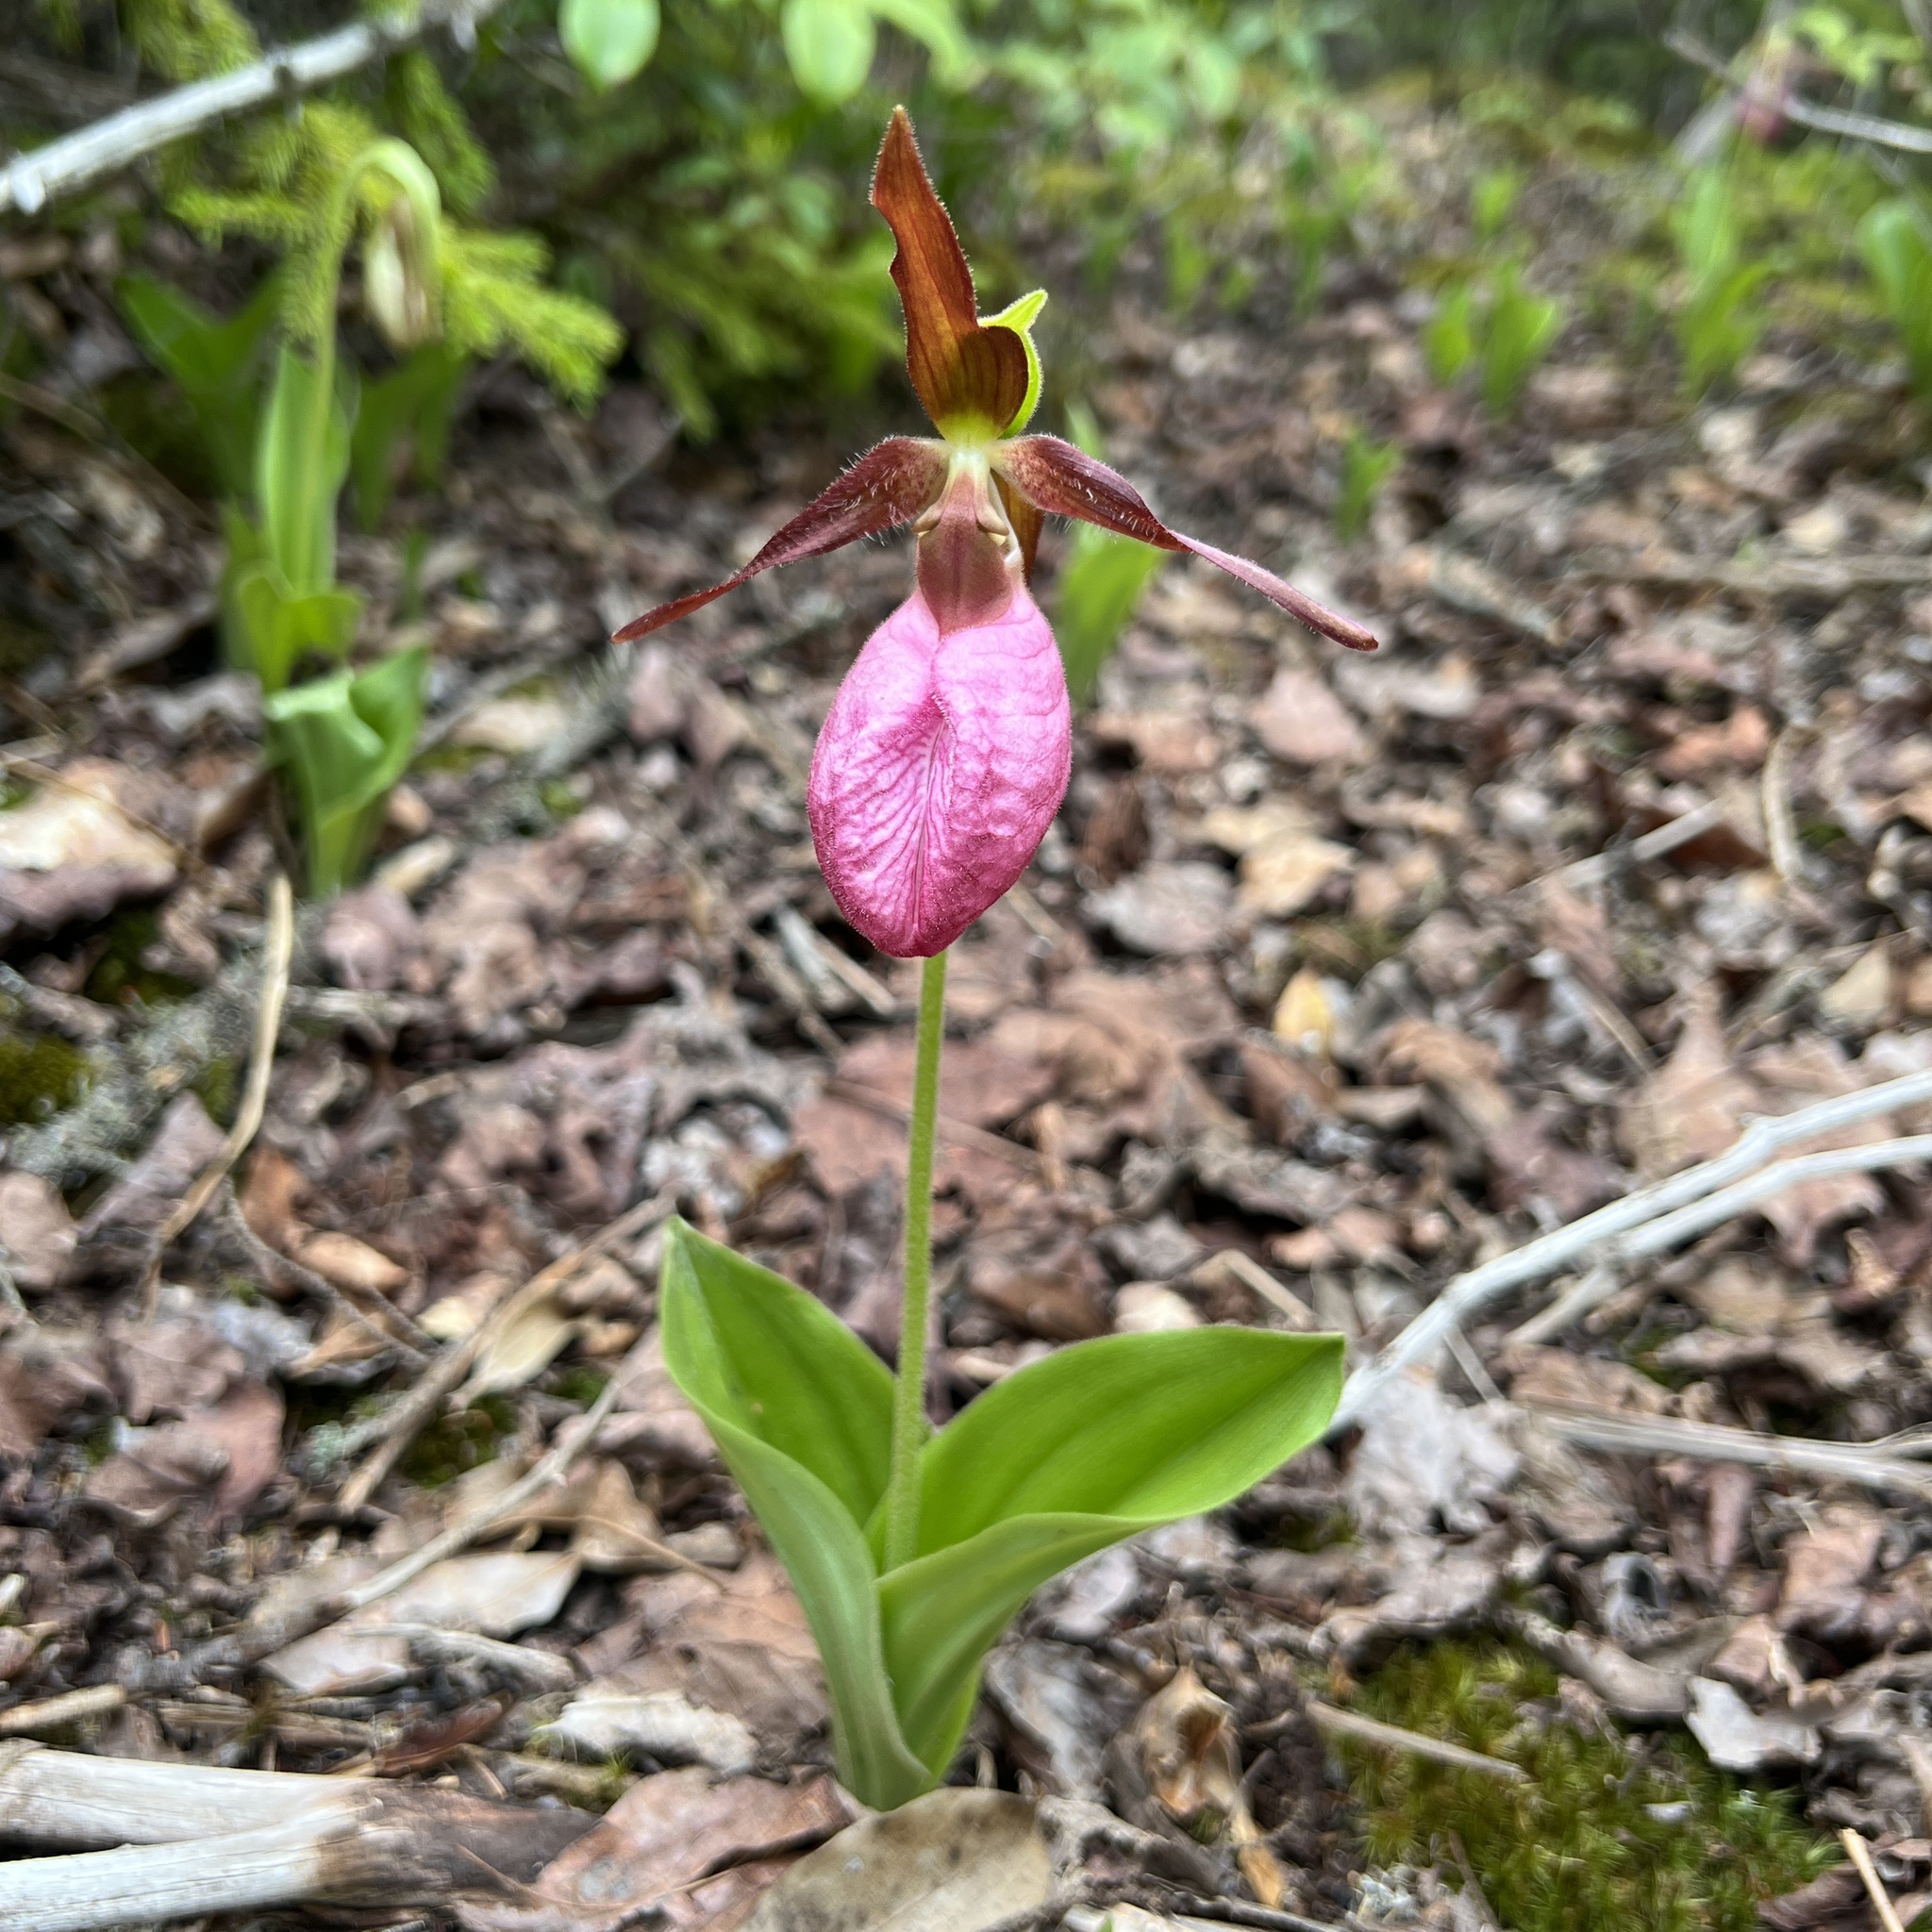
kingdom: Plantae
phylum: Tracheophyta
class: Liliopsida
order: Asparagales
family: Orchidaceae
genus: Cypripedium
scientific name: Cypripedium acaule
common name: Pink lady's-slipper
